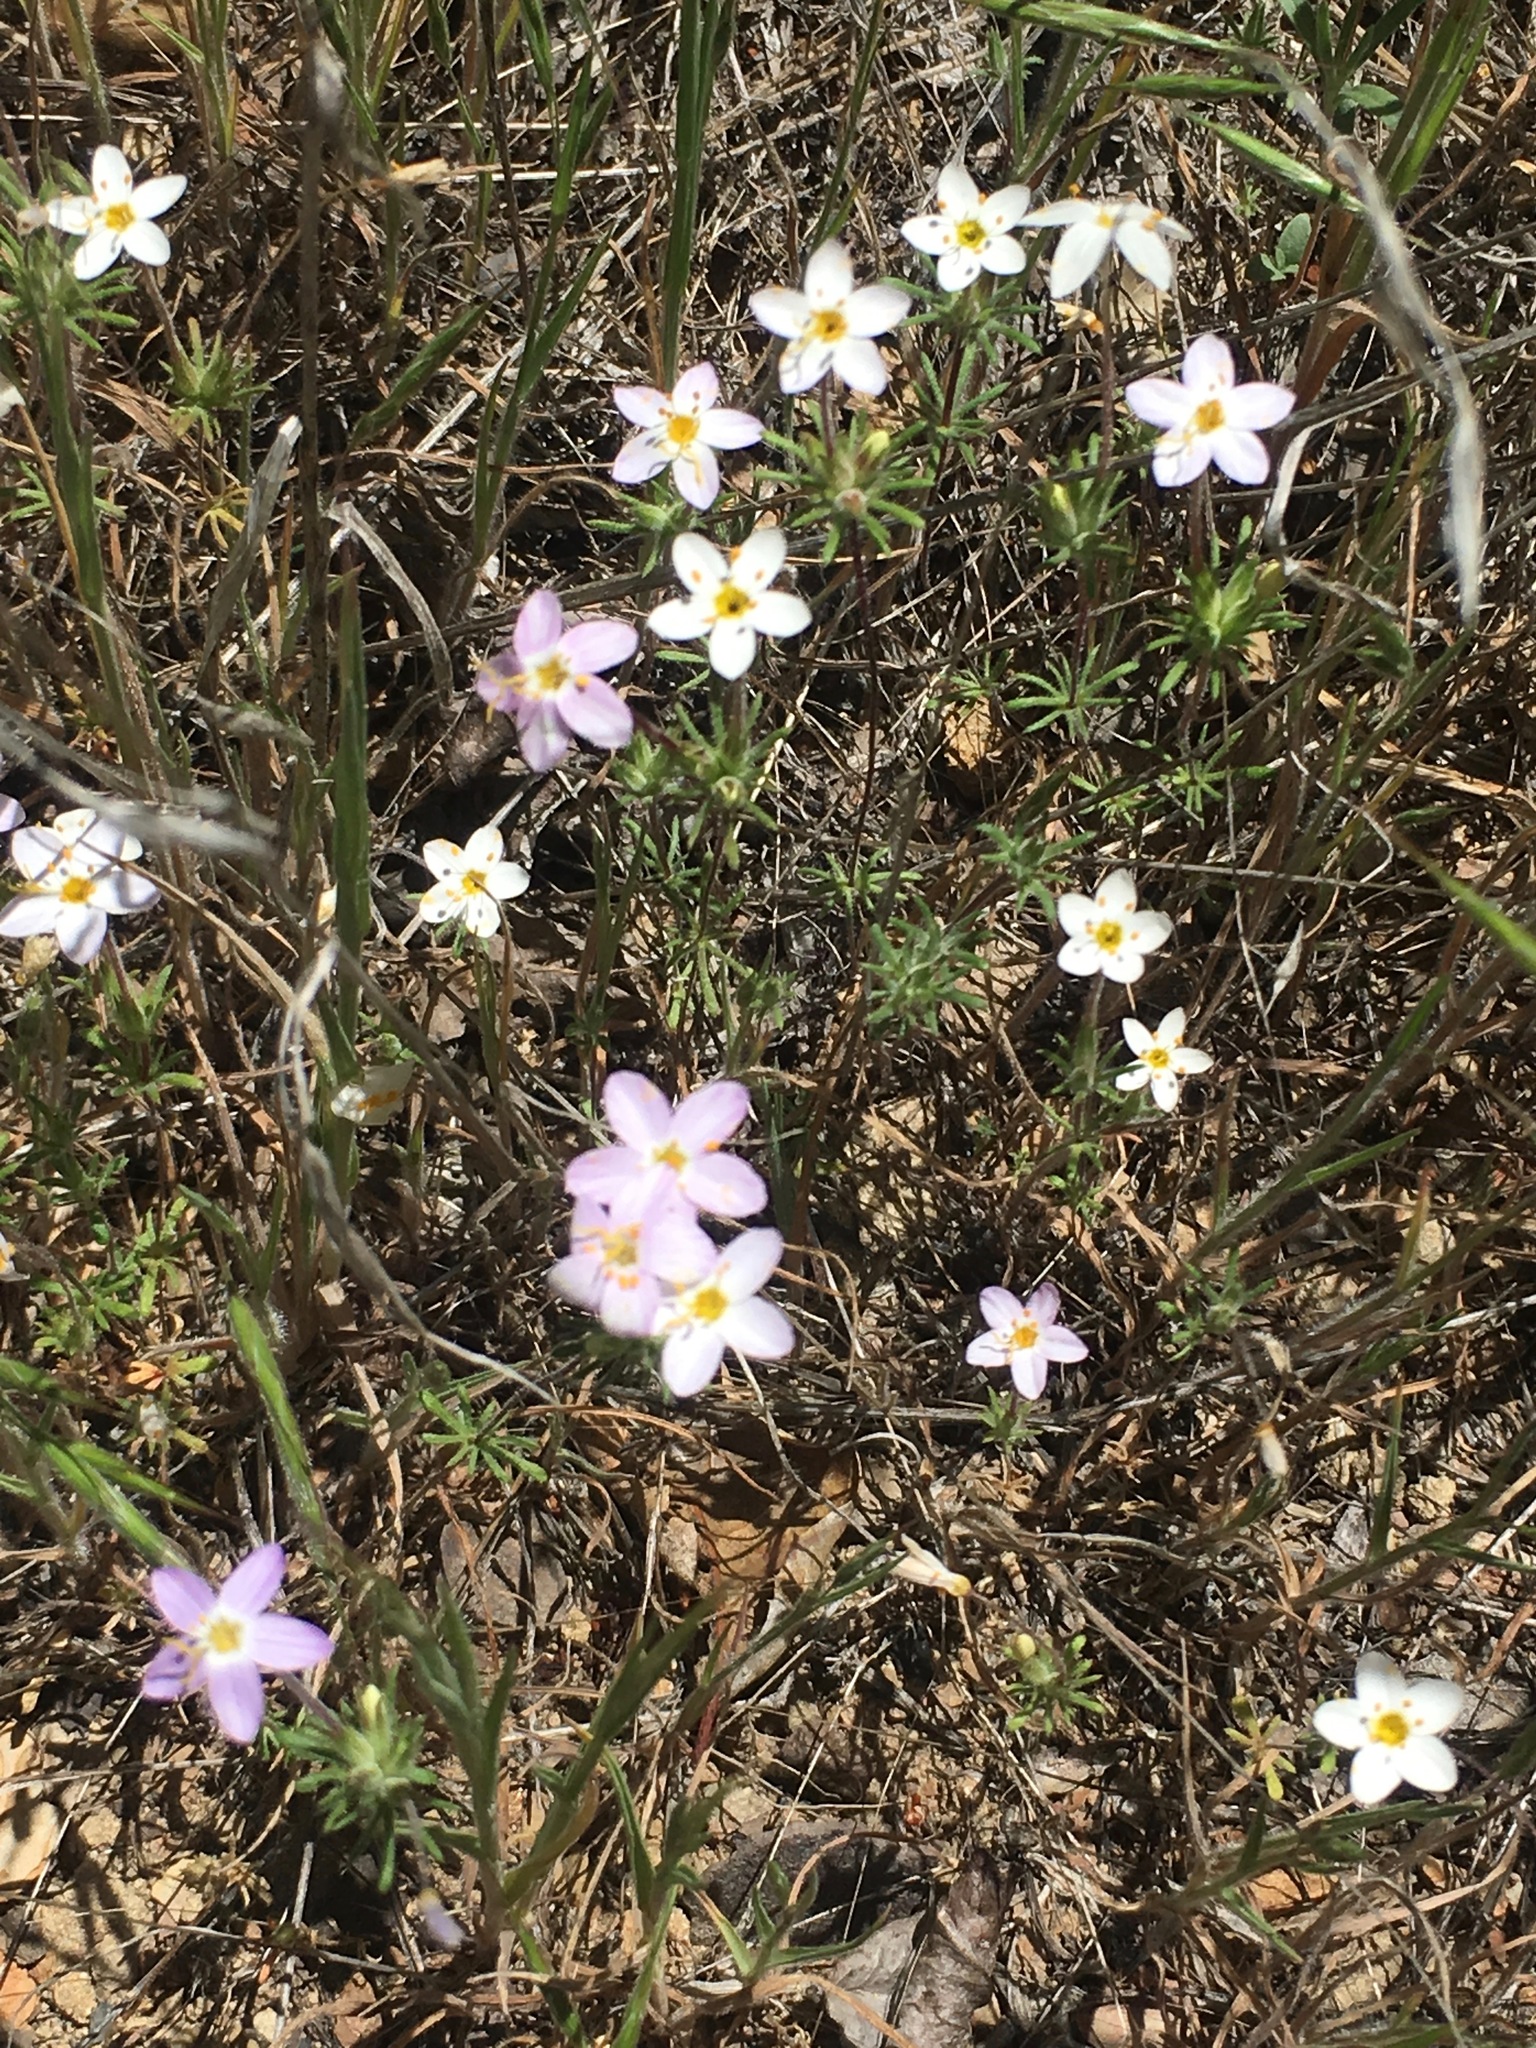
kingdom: Plantae
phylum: Tracheophyta
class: Magnoliopsida
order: Ericales
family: Polemoniaceae
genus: Leptosiphon
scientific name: Leptosiphon parviflorus
